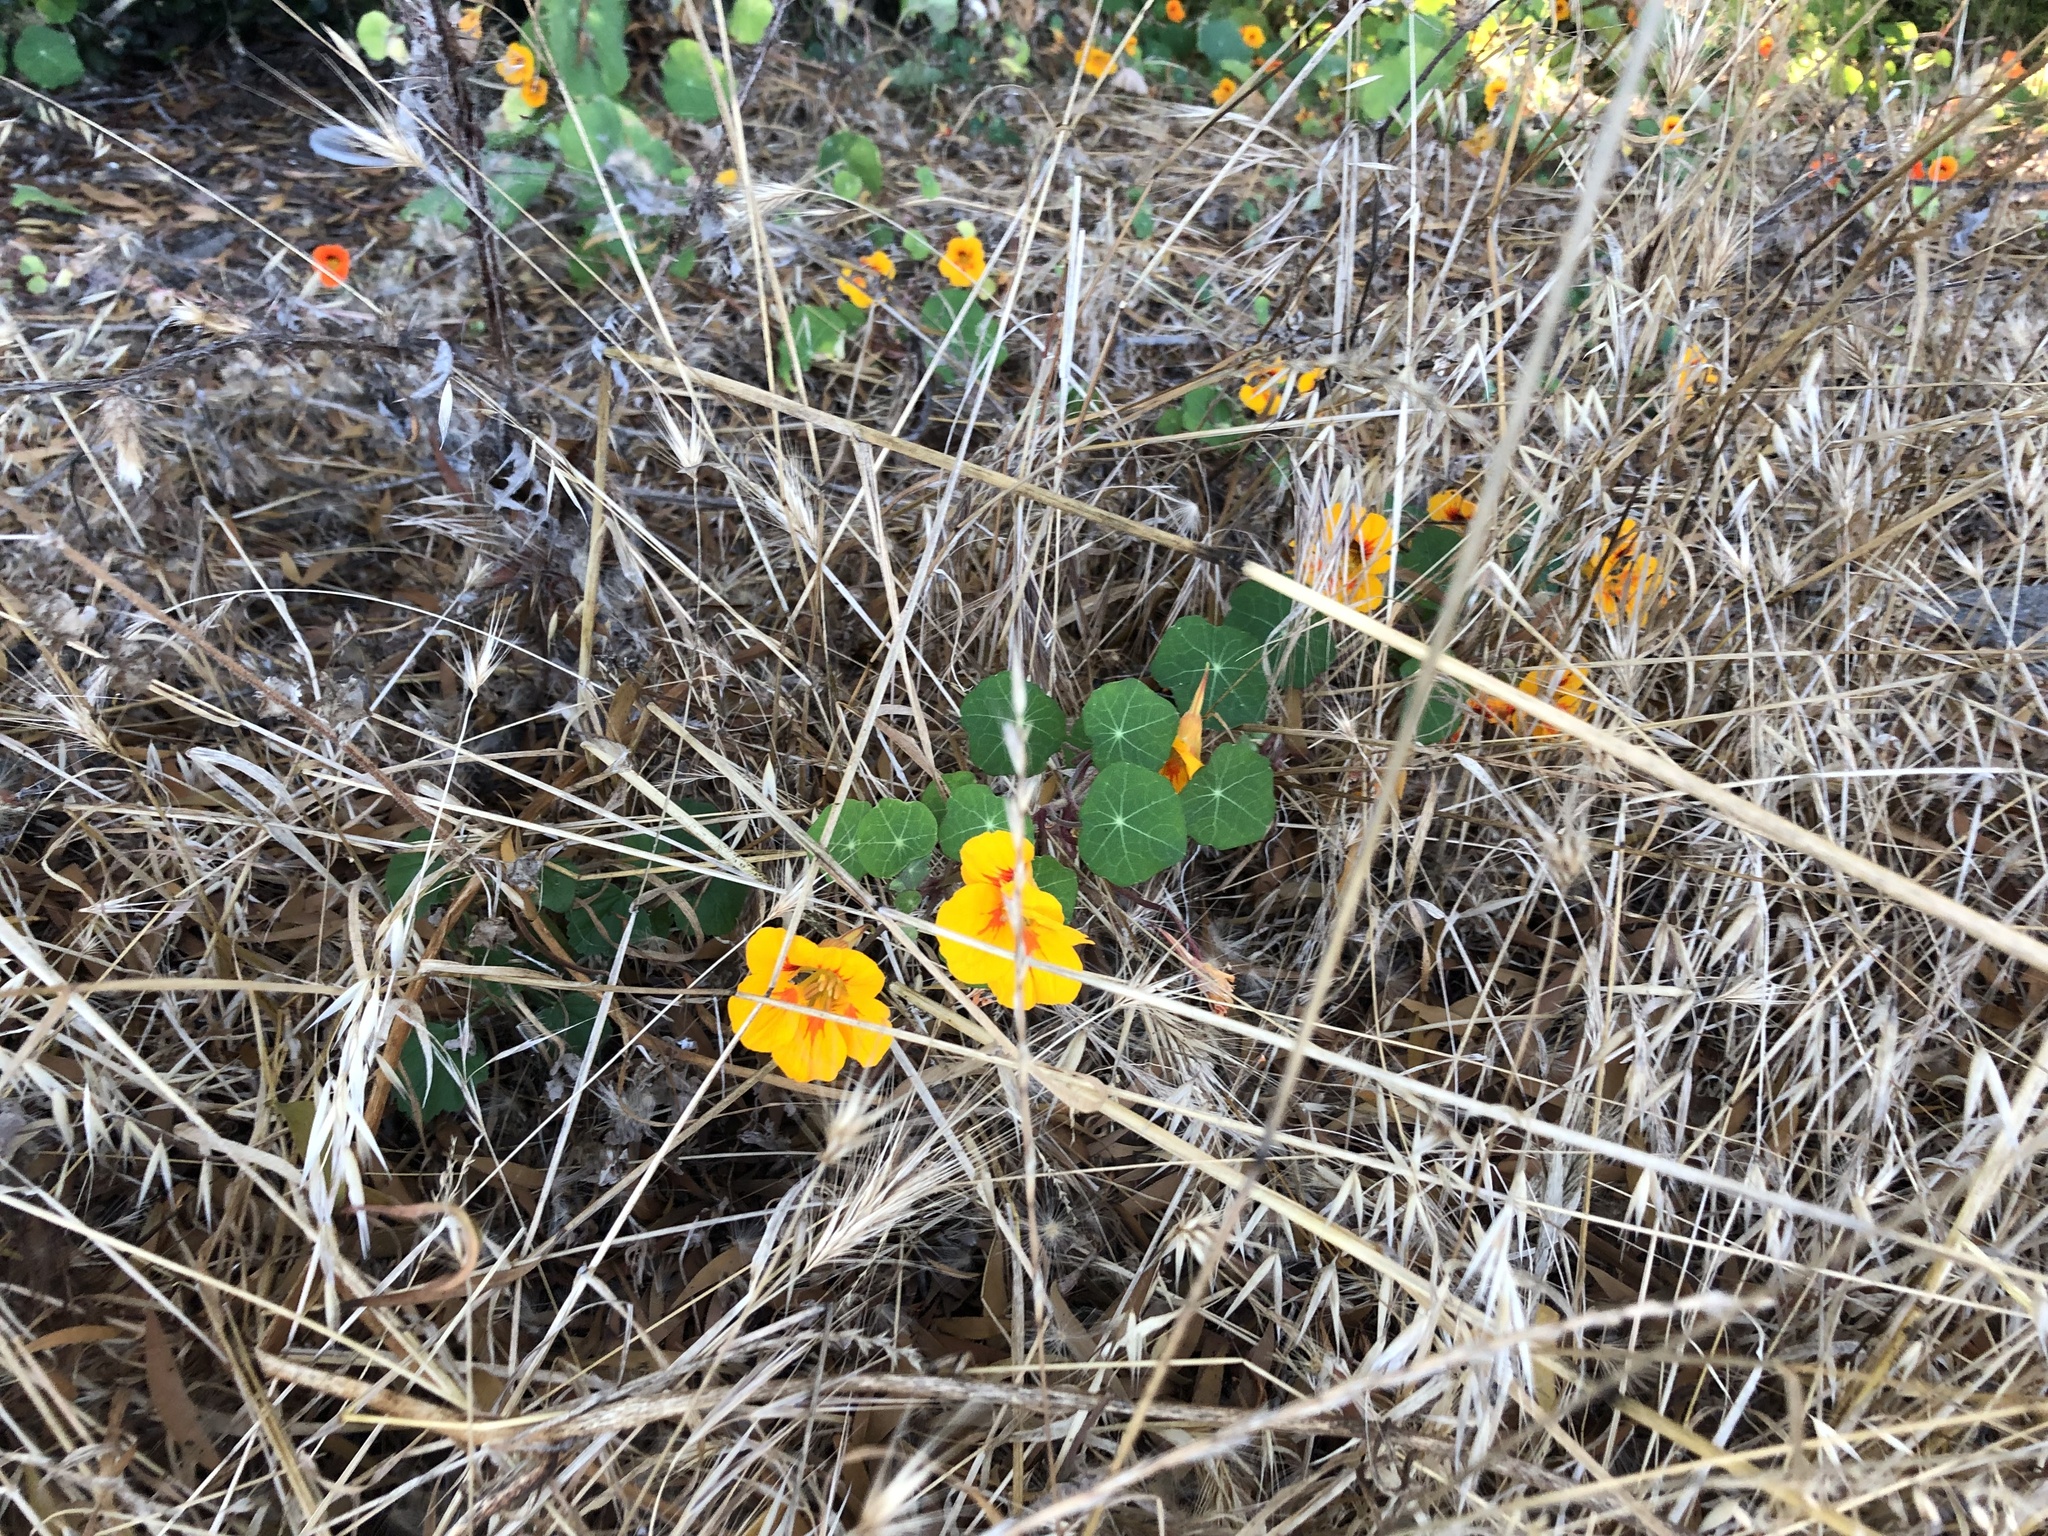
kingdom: Plantae
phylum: Tracheophyta
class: Magnoliopsida
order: Brassicales
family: Tropaeolaceae
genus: Tropaeolum
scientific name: Tropaeolum majus
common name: Nasturtium
